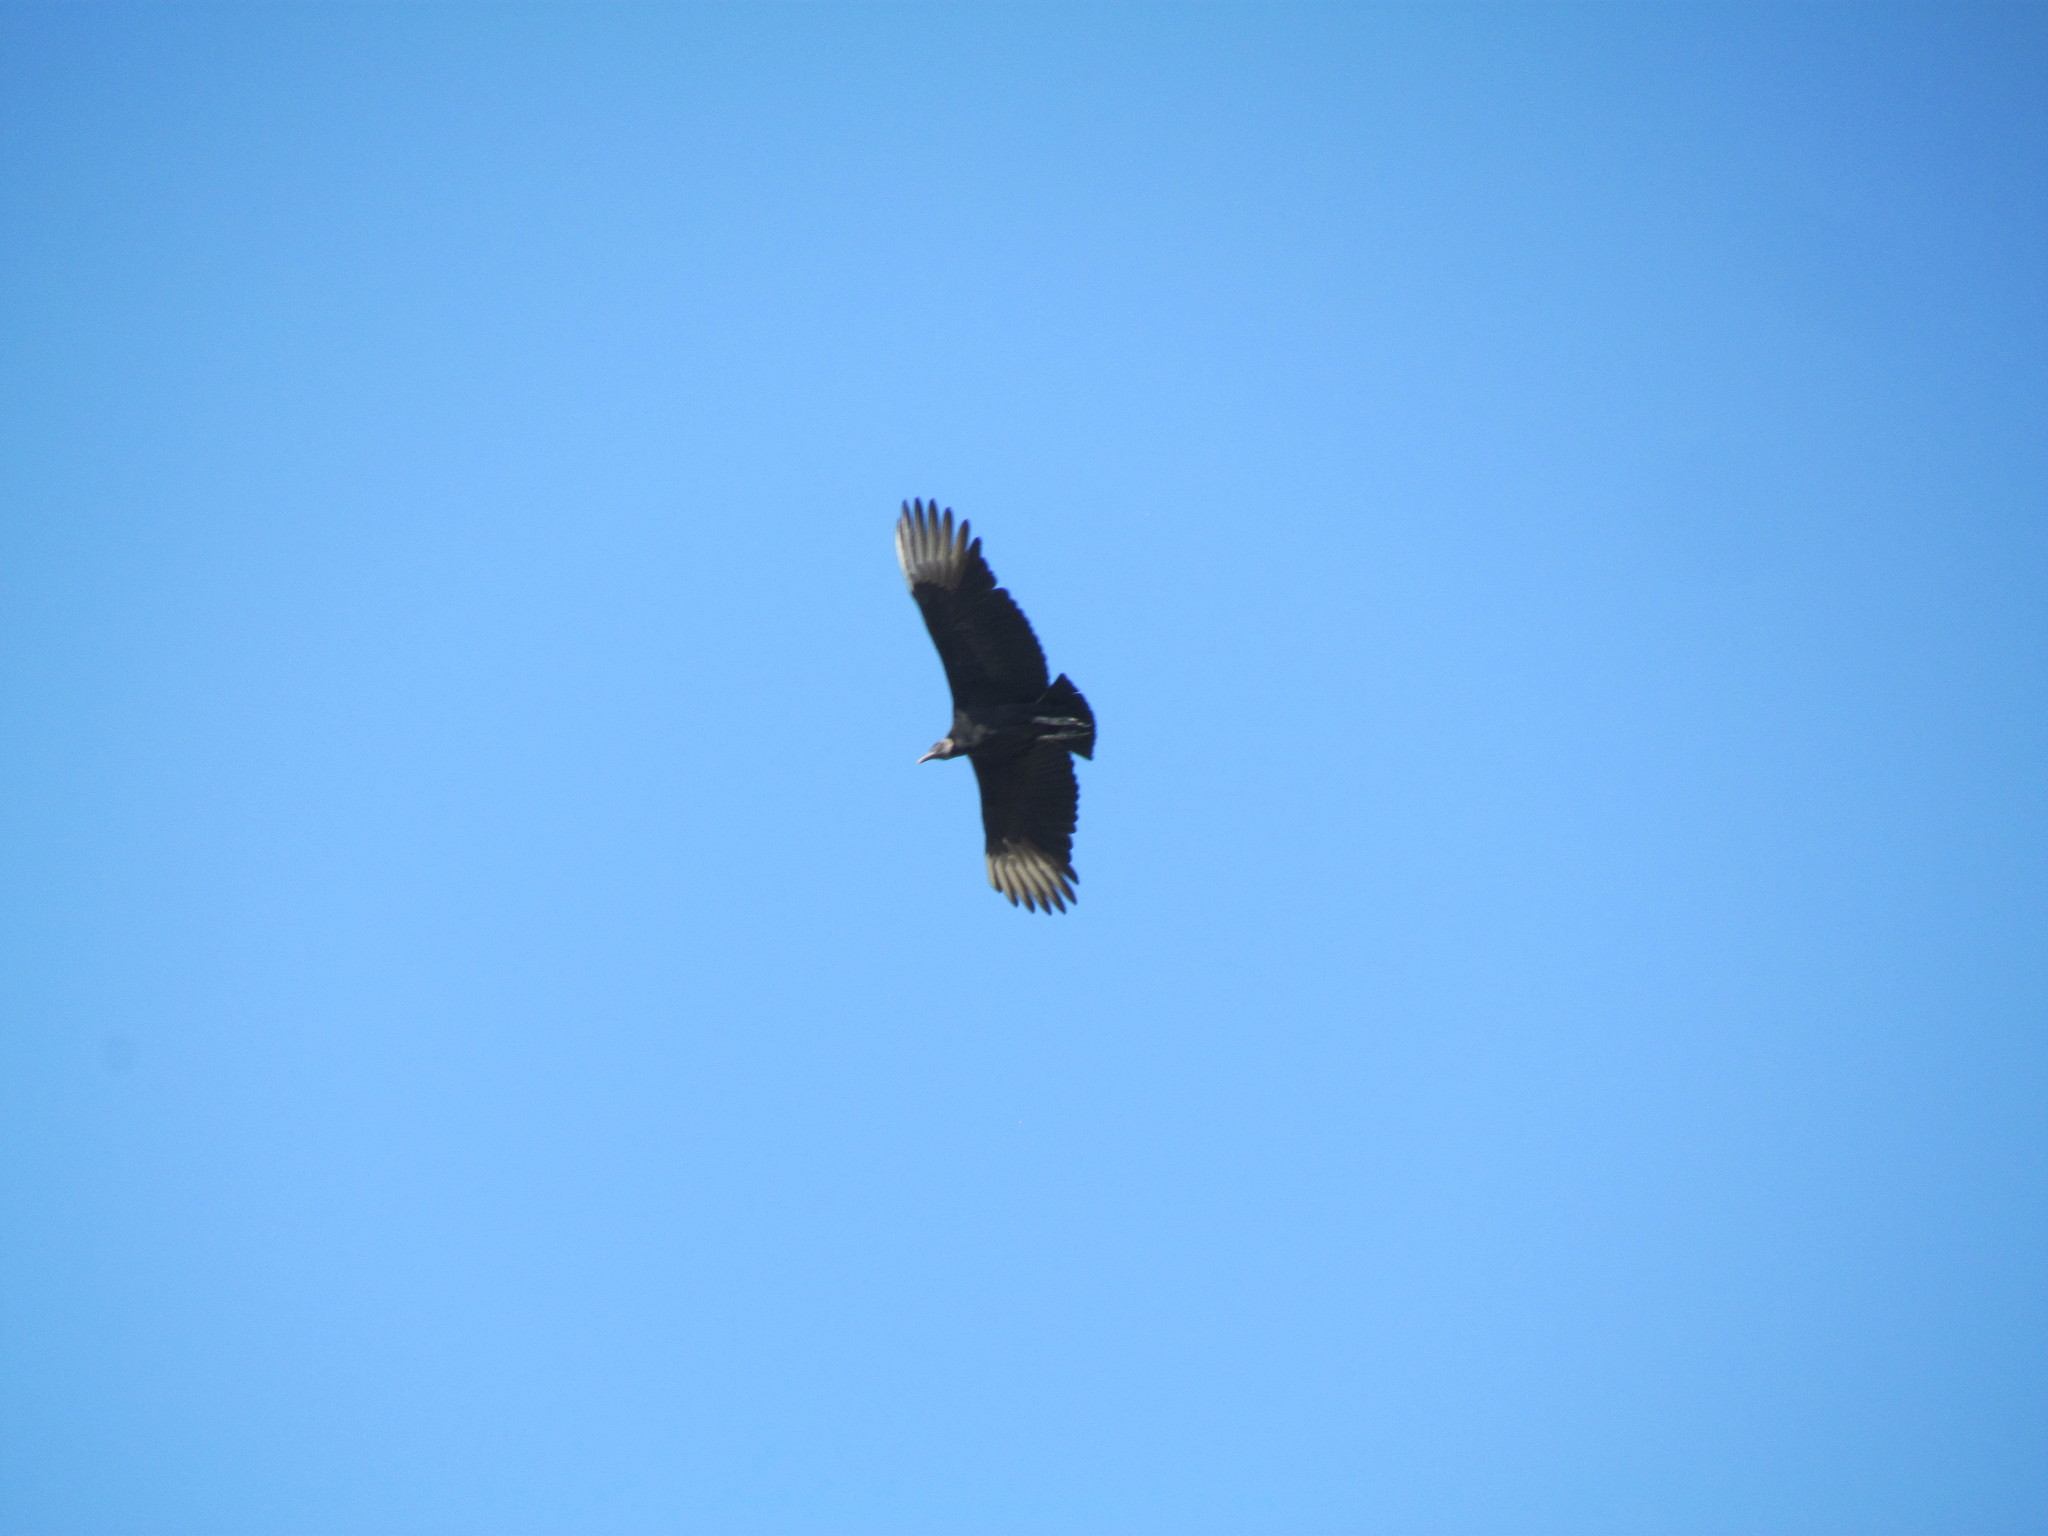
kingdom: Animalia
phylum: Chordata
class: Aves
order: Accipitriformes
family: Cathartidae
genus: Coragyps
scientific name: Coragyps atratus
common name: Black vulture
